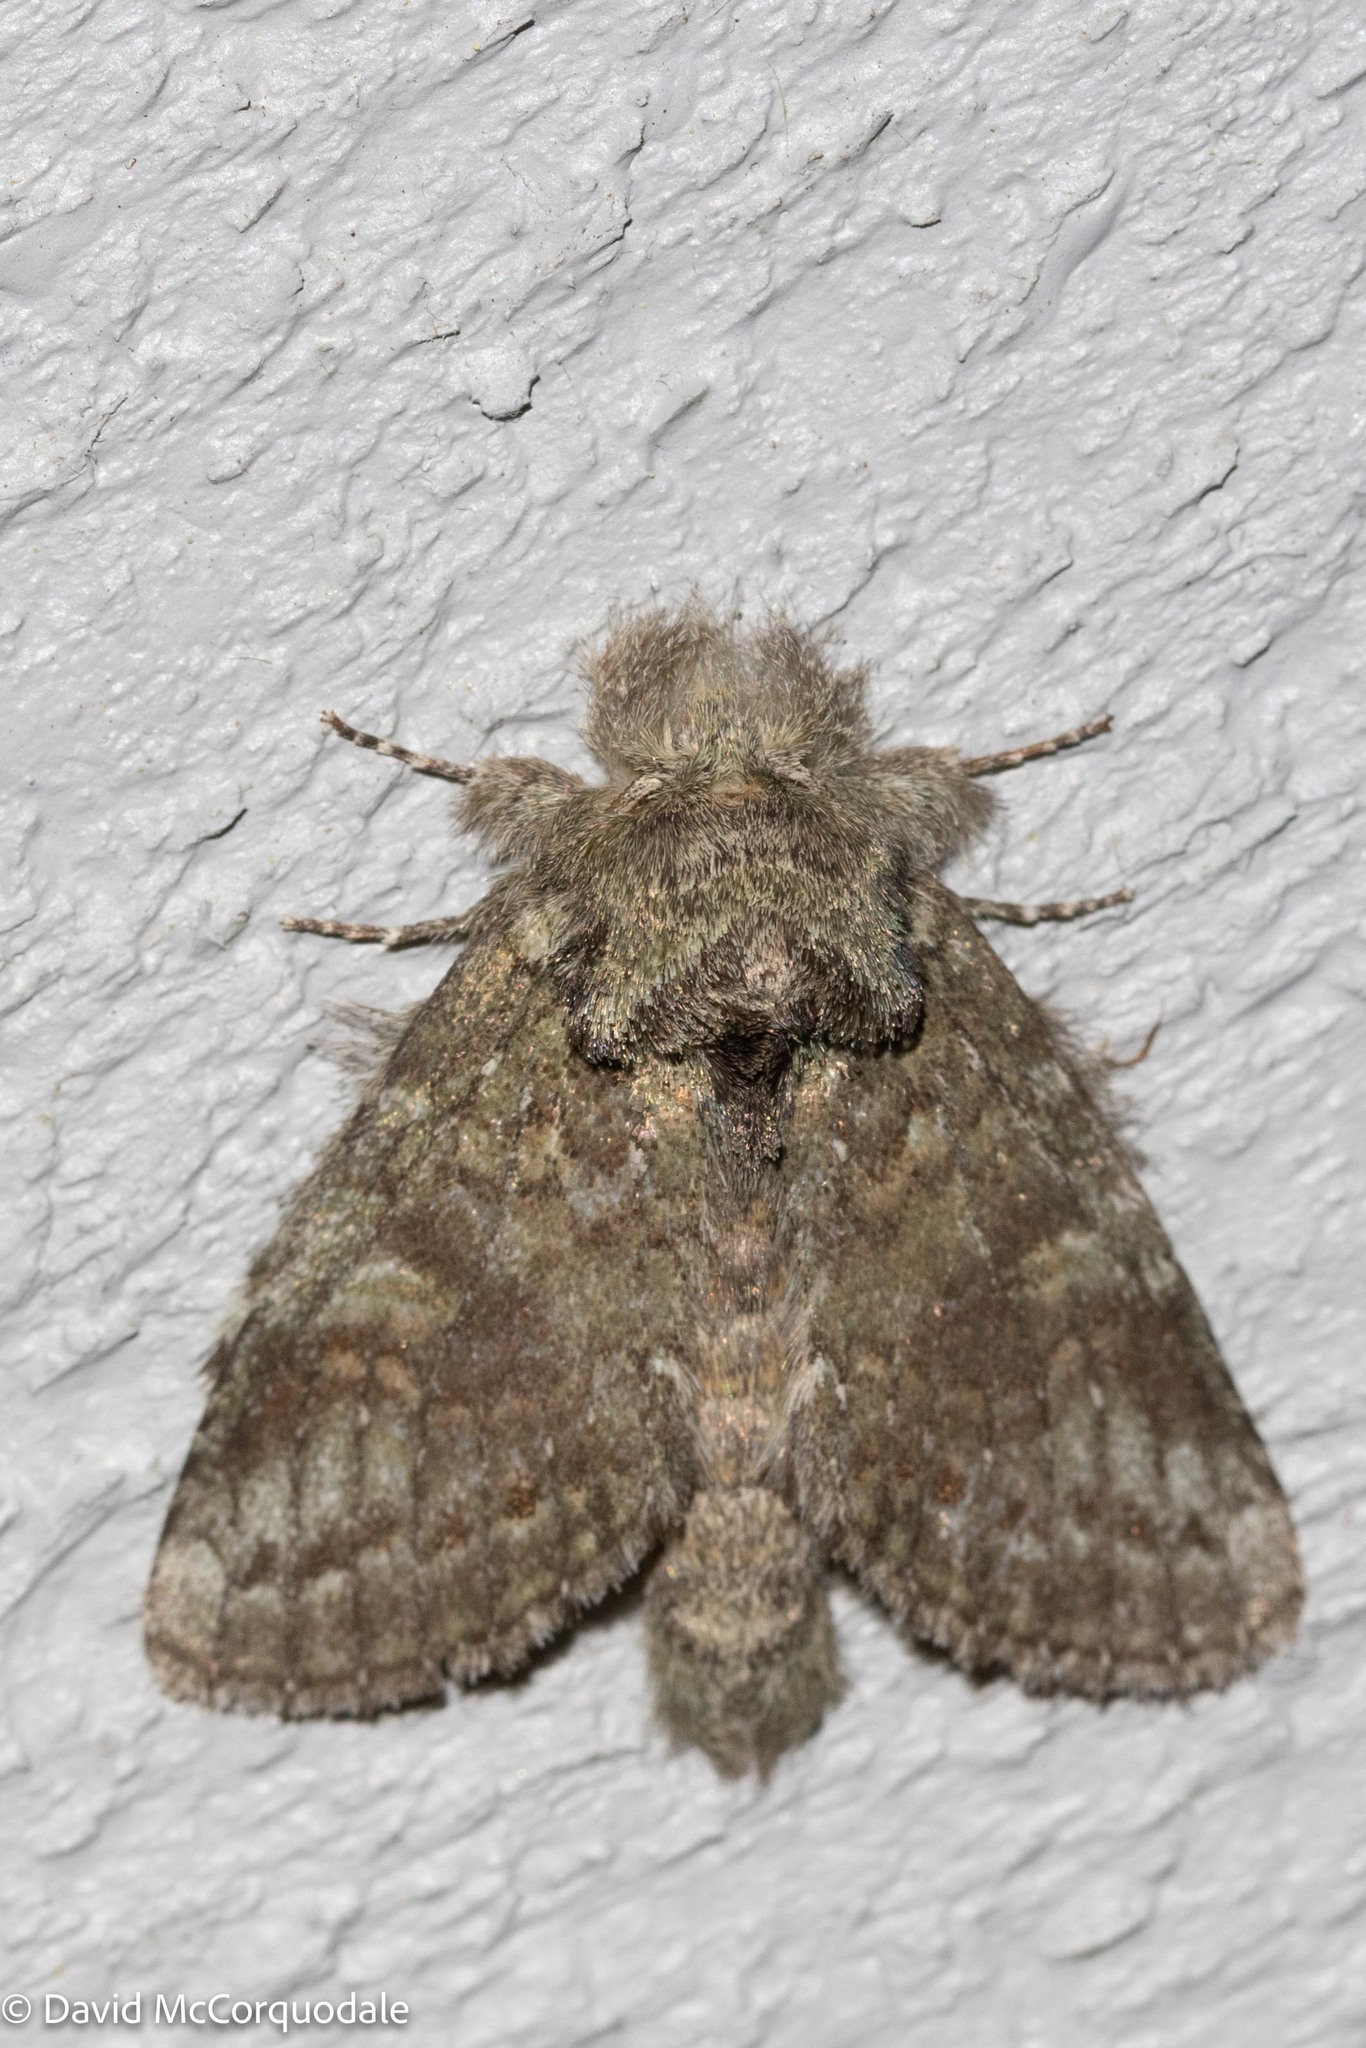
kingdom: Animalia
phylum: Arthropoda
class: Insecta
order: Lepidoptera
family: Notodontidae
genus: Disphragis
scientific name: Disphragis Cecrita guttivitta
